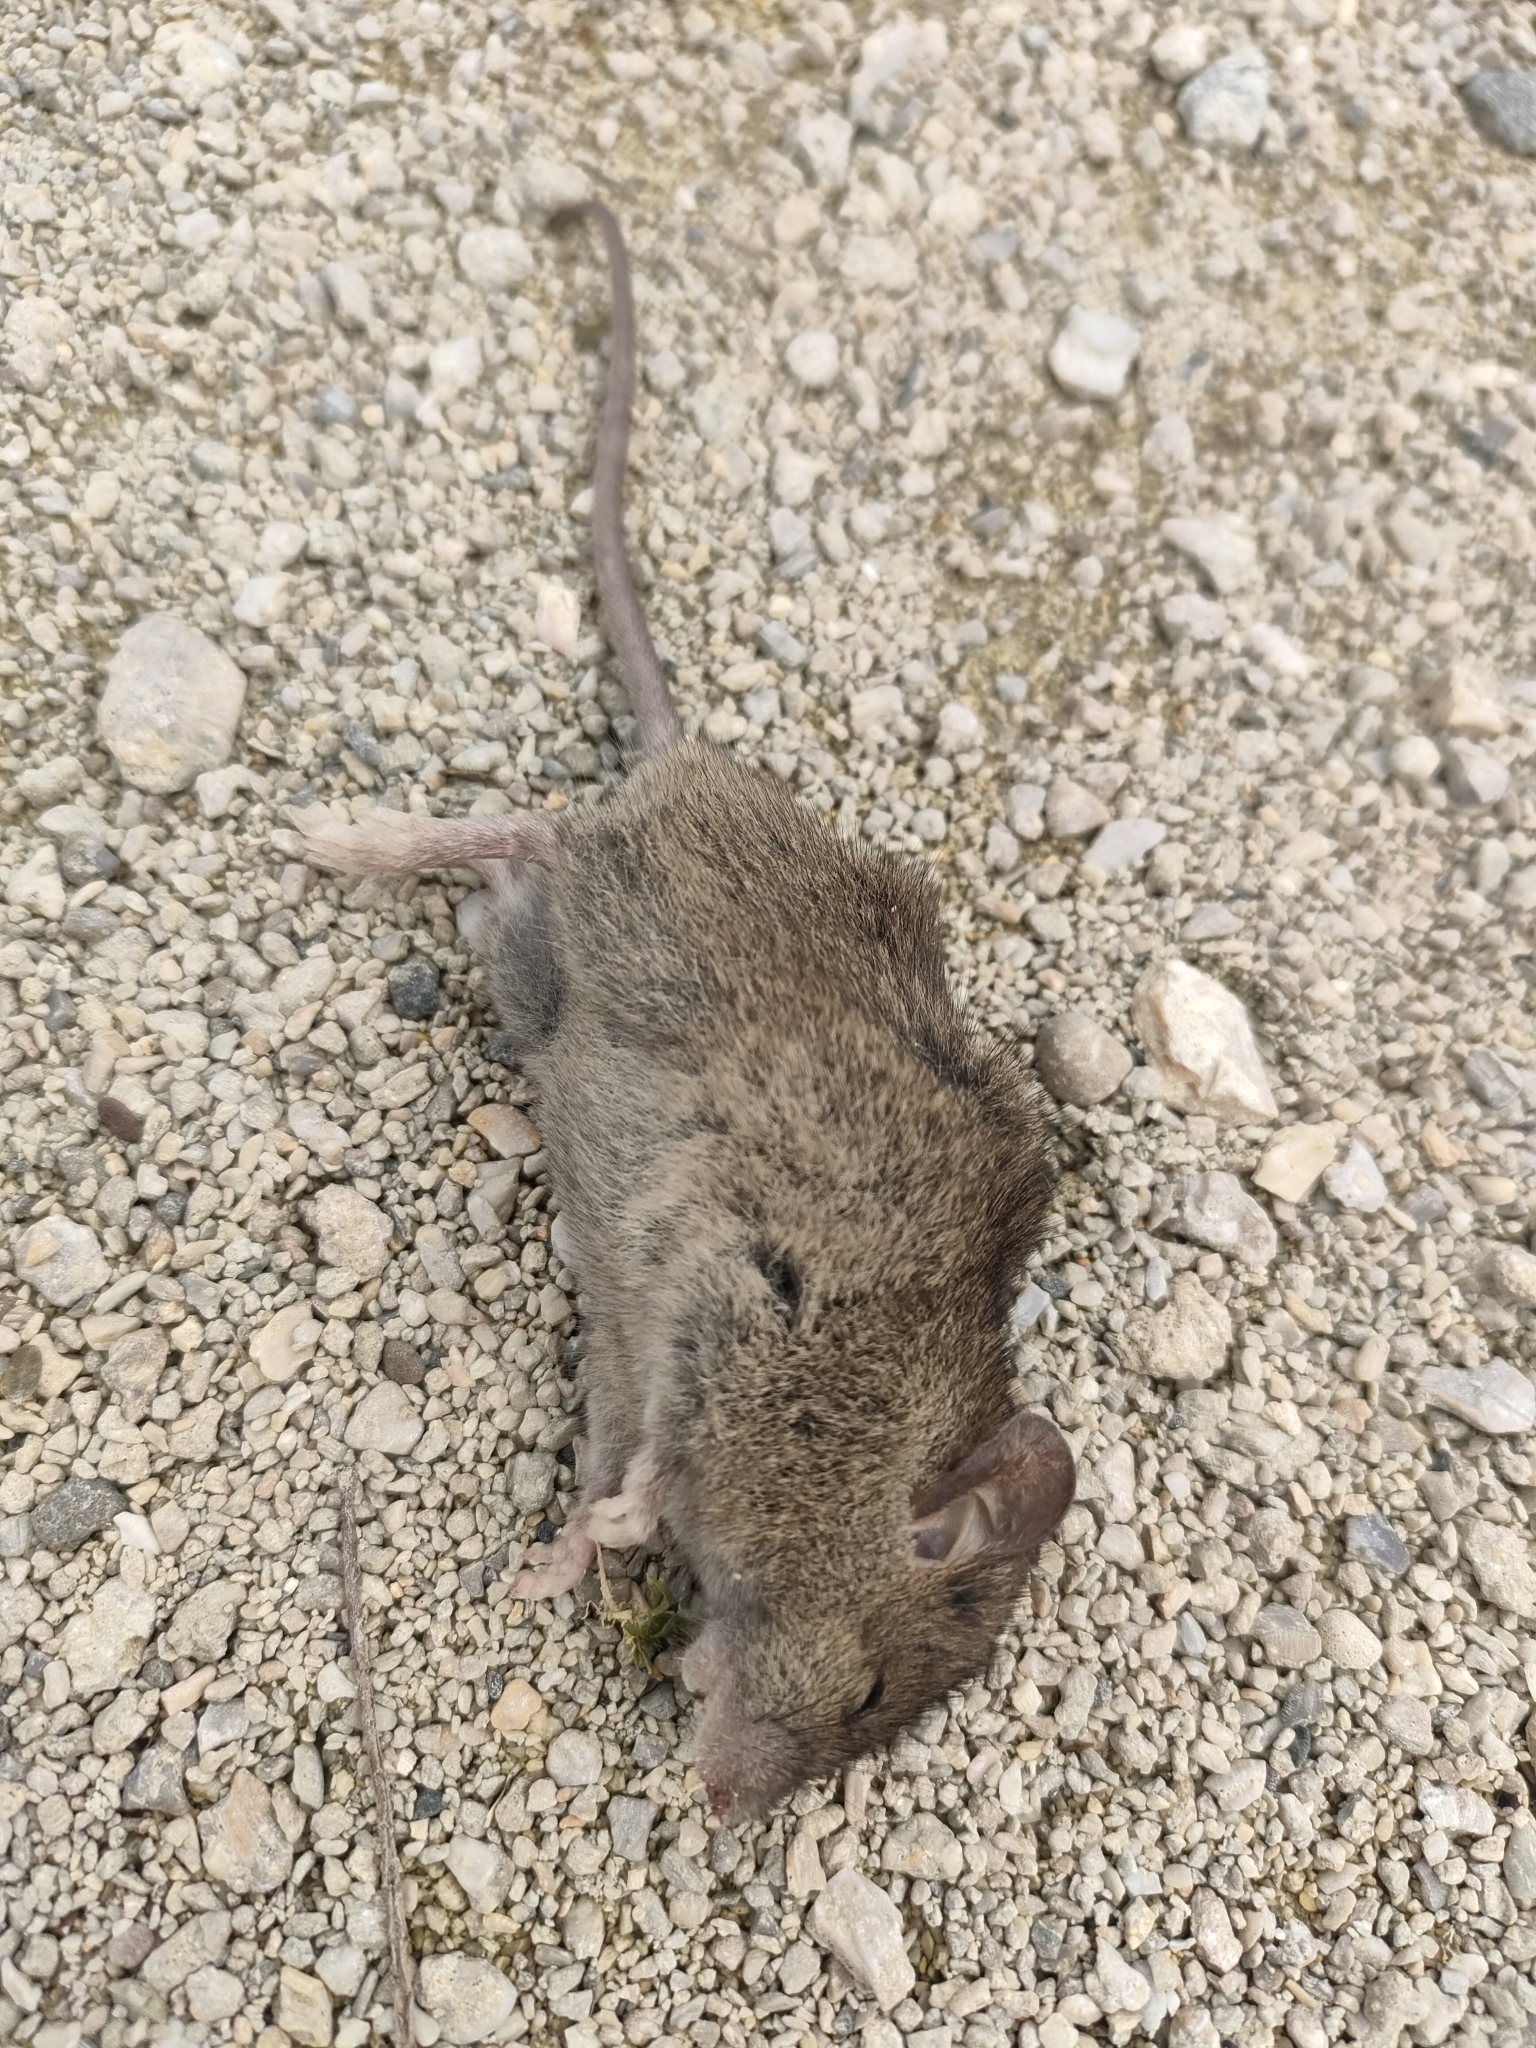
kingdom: Animalia
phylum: Chordata
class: Mammalia
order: Rodentia
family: Muridae
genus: Mus
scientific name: Mus musculus
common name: House mouse
